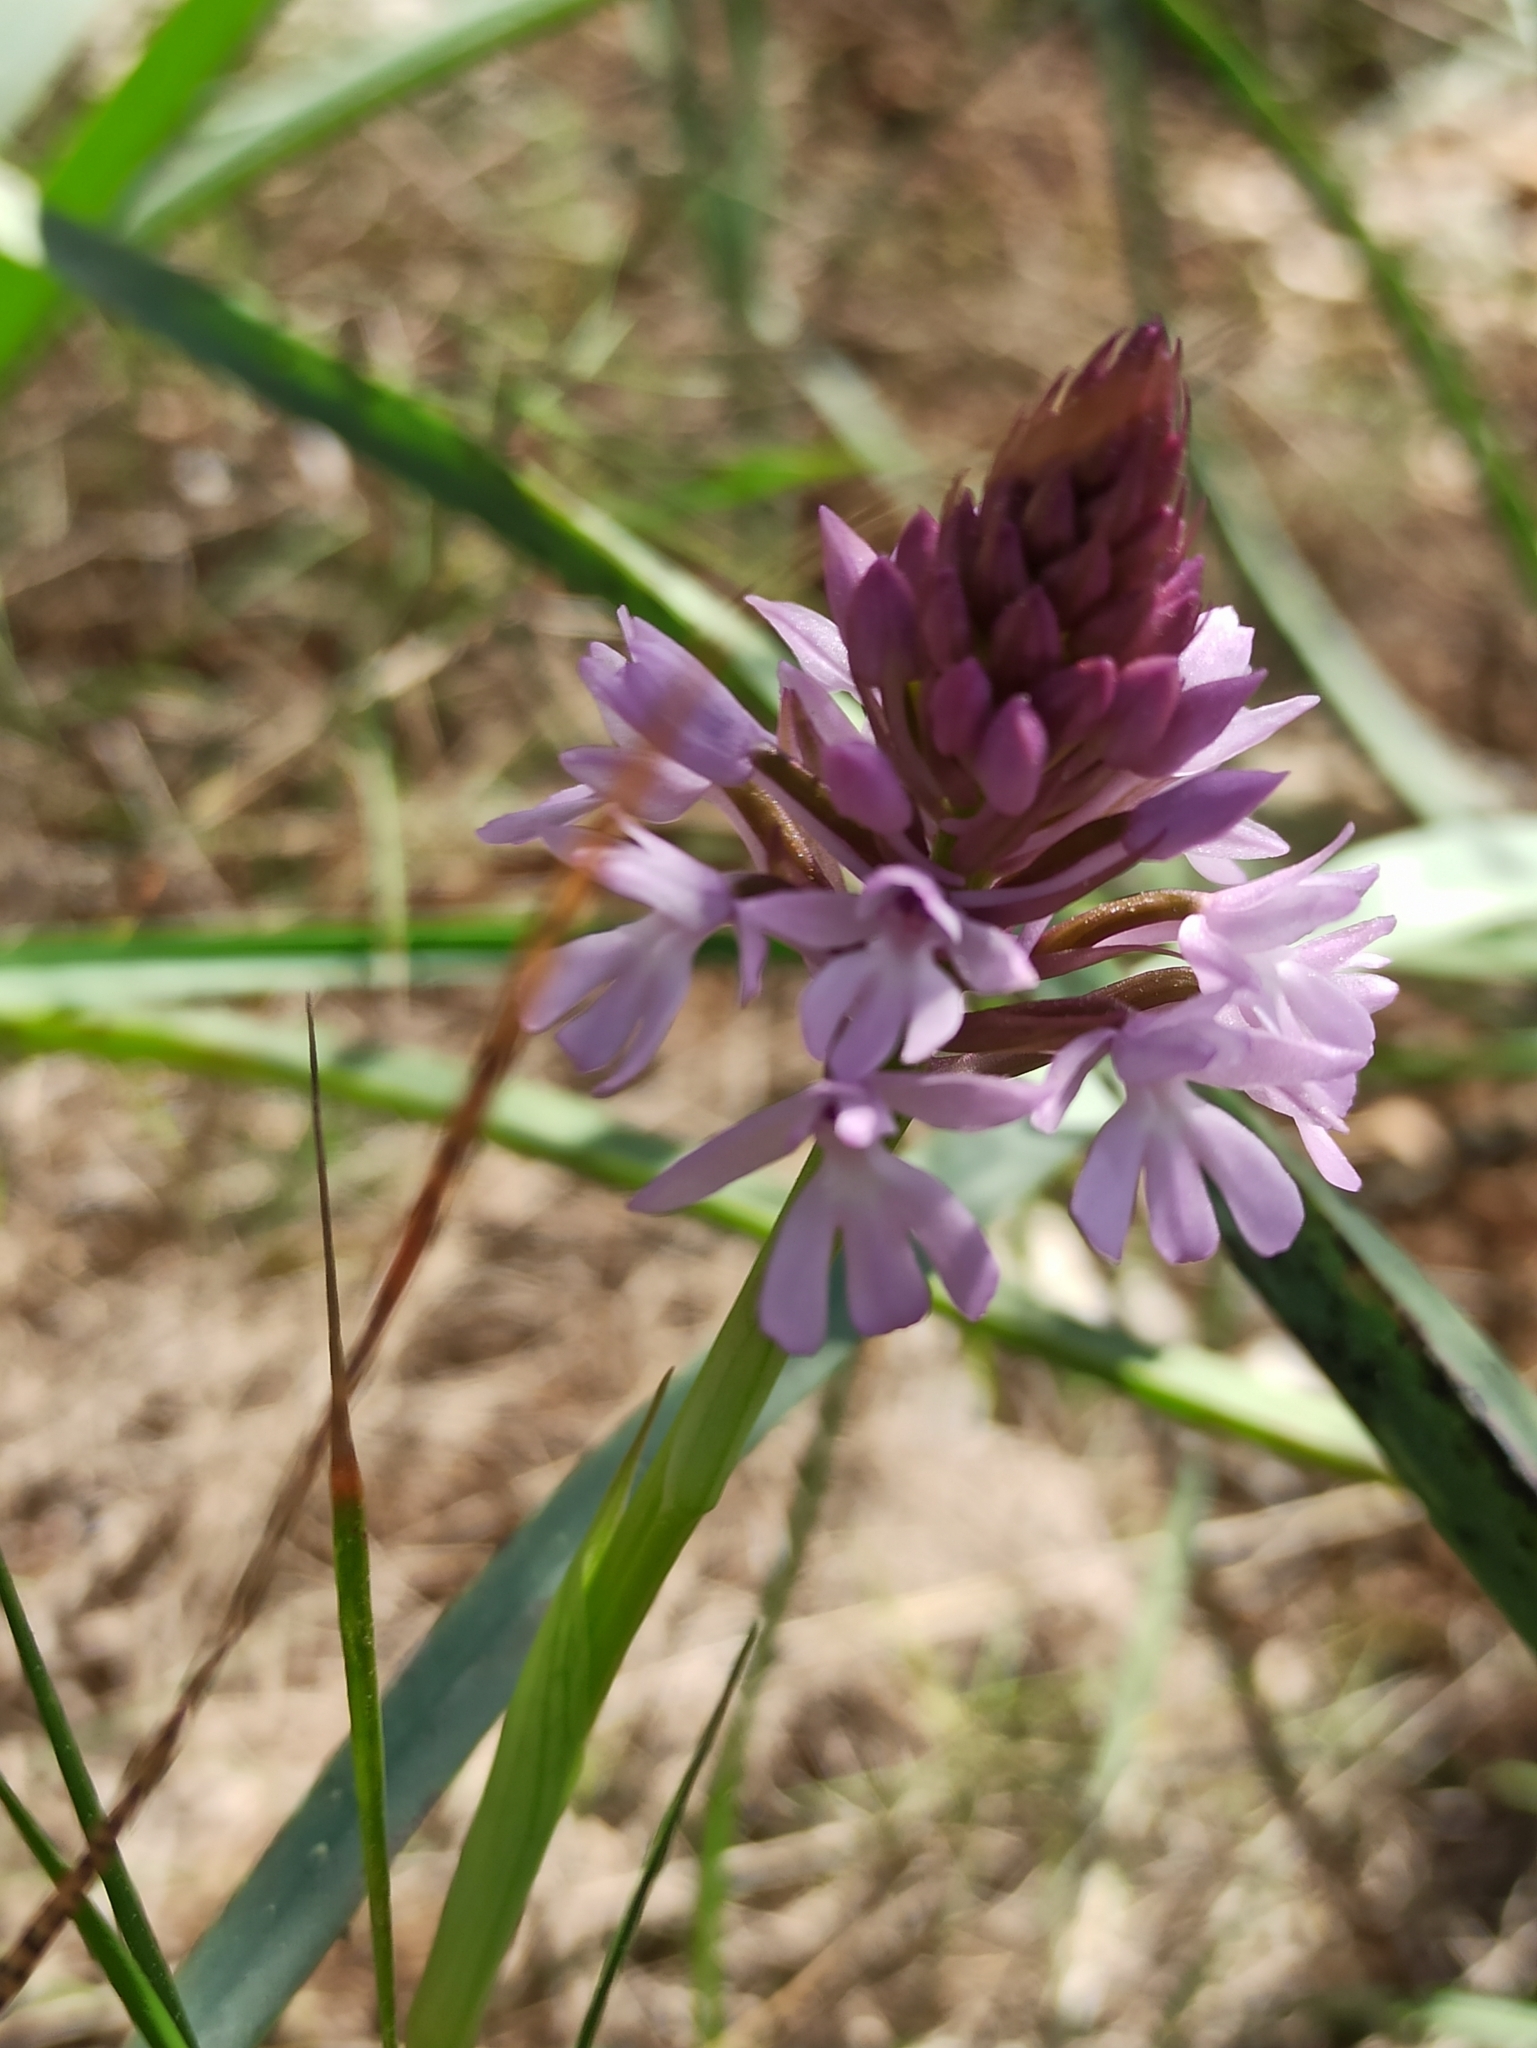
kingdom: Plantae
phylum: Tracheophyta
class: Liliopsida
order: Asparagales
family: Orchidaceae
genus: Anacamptis
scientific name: Anacamptis pyramidalis
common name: Pyramidal orchid
